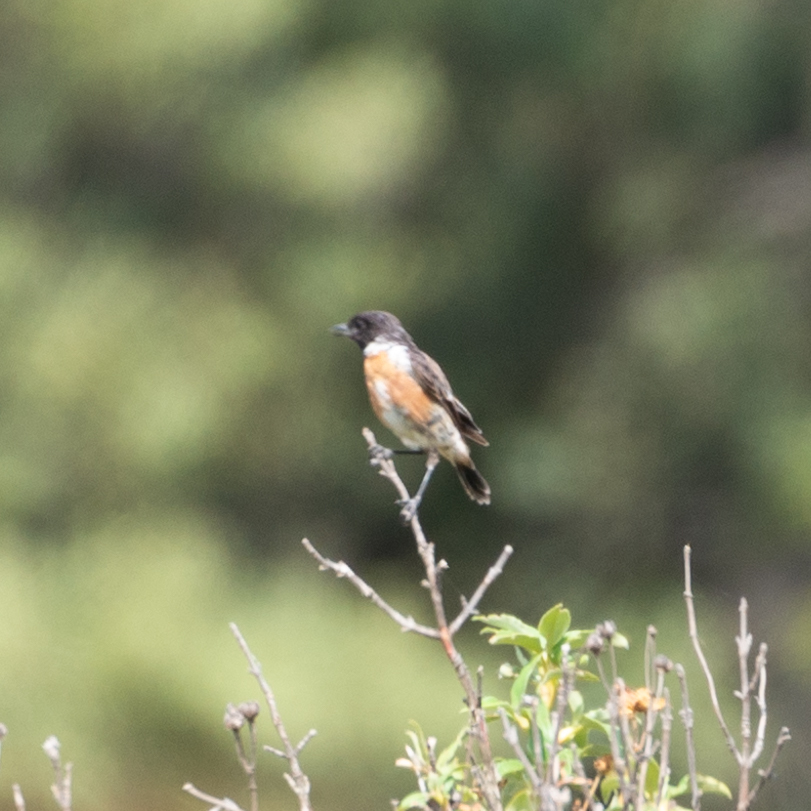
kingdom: Animalia
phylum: Chordata
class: Aves
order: Passeriformes
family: Muscicapidae
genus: Saxicola
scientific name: Saxicola rubicola
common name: European stonechat
